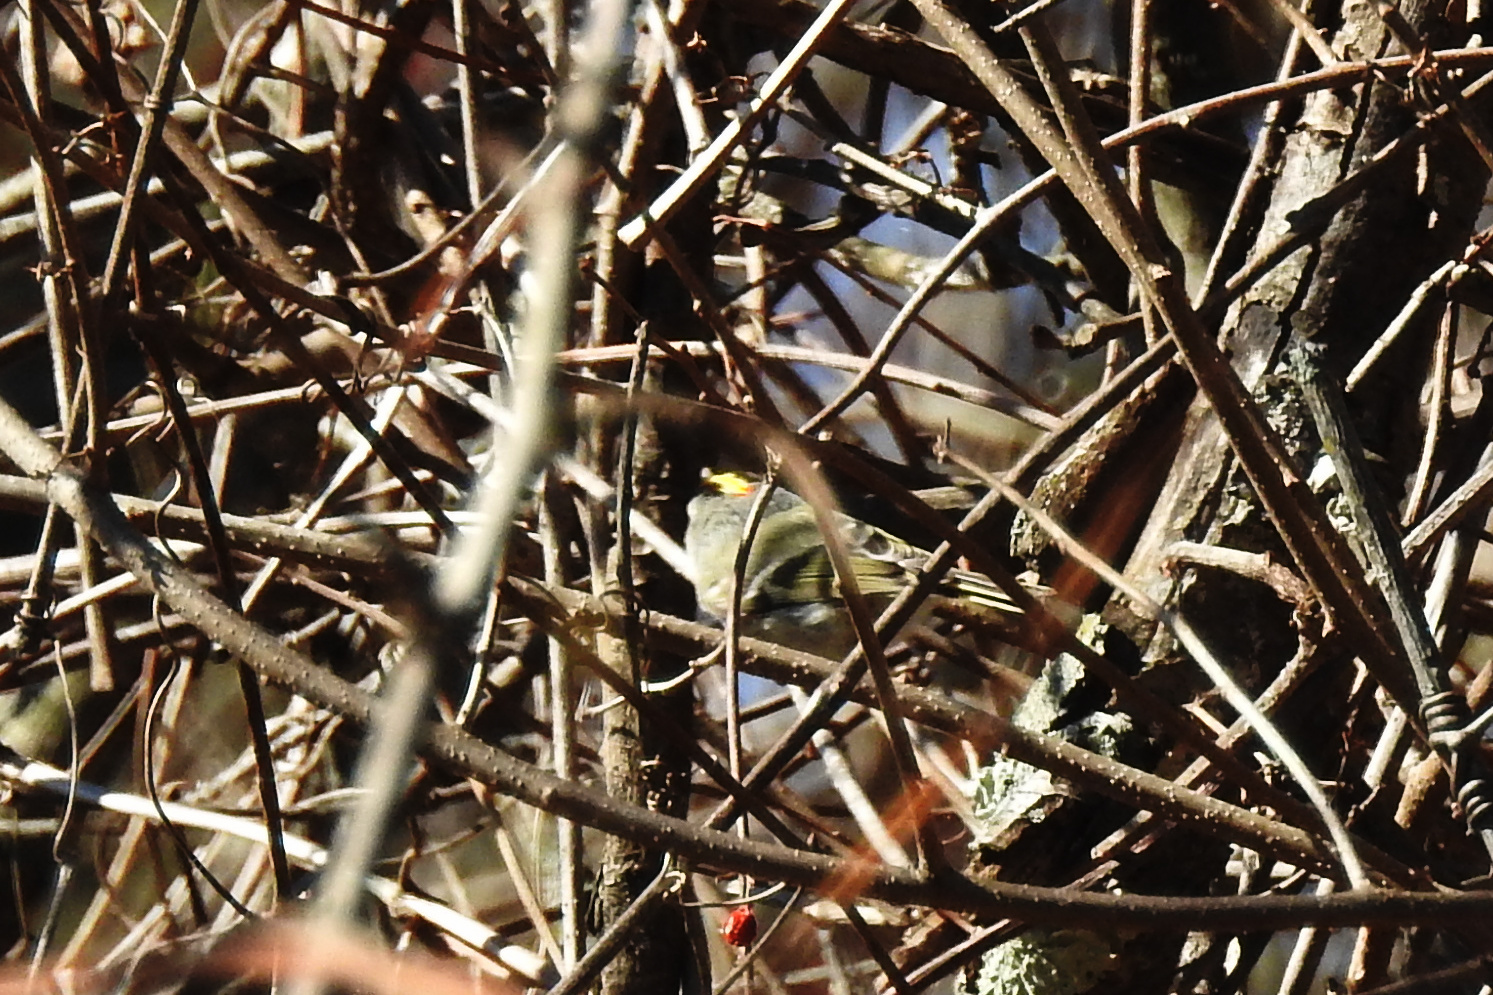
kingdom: Animalia
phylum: Chordata
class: Aves
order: Passeriformes
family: Regulidae
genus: Regulus
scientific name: Regulus satrapa
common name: Golden-crowned kinglet
